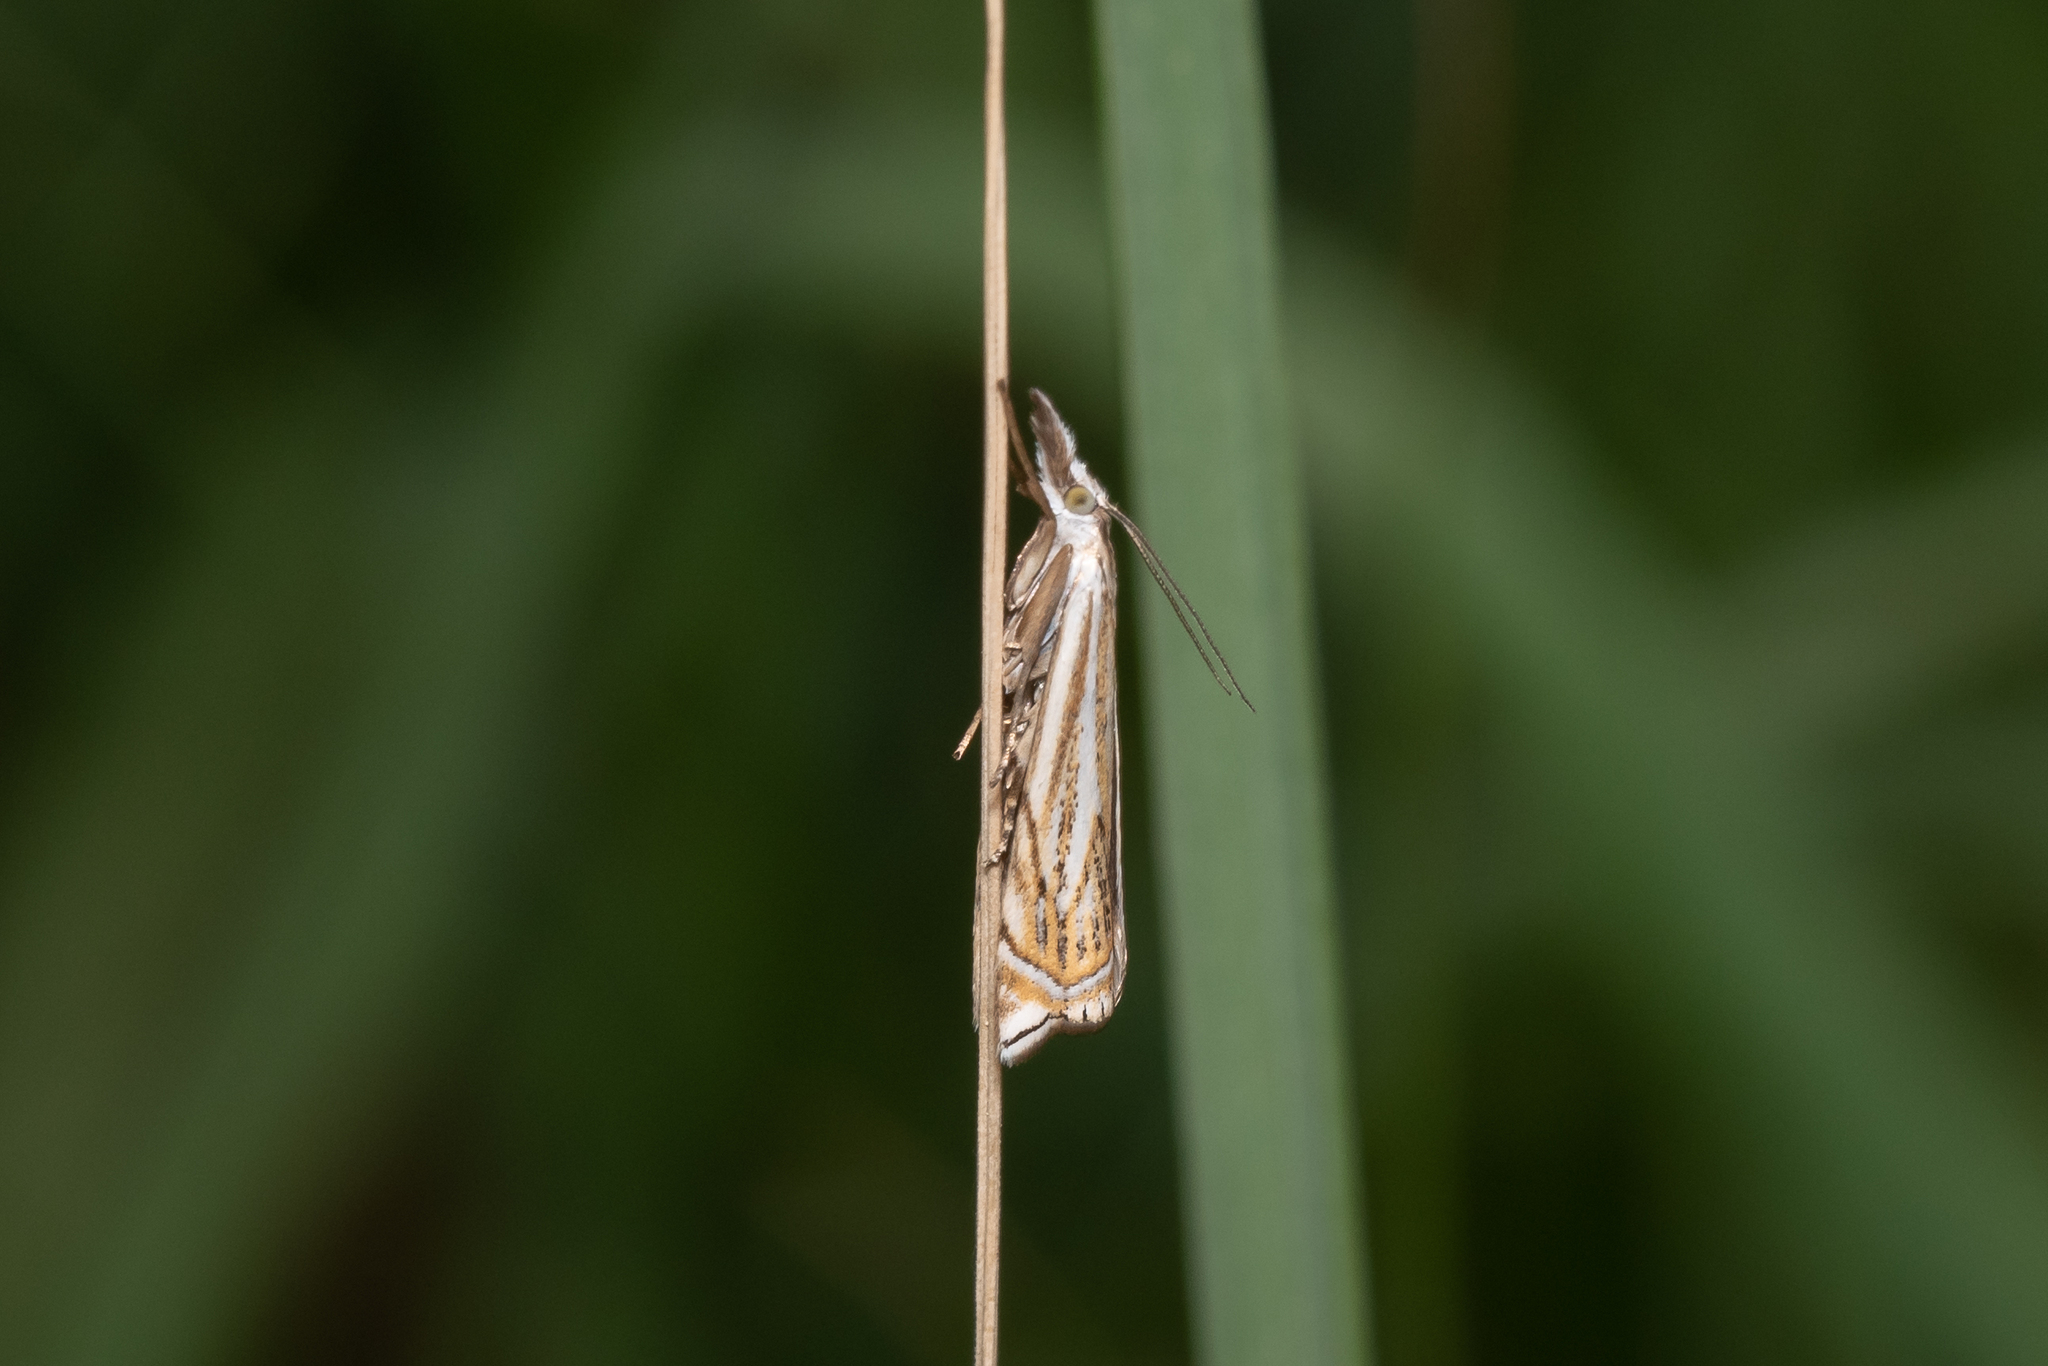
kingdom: Animalia
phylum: Arthropoda
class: Insecta
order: Lepidoptera
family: Crambidae
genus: Crambus
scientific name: Crambus nemorella
